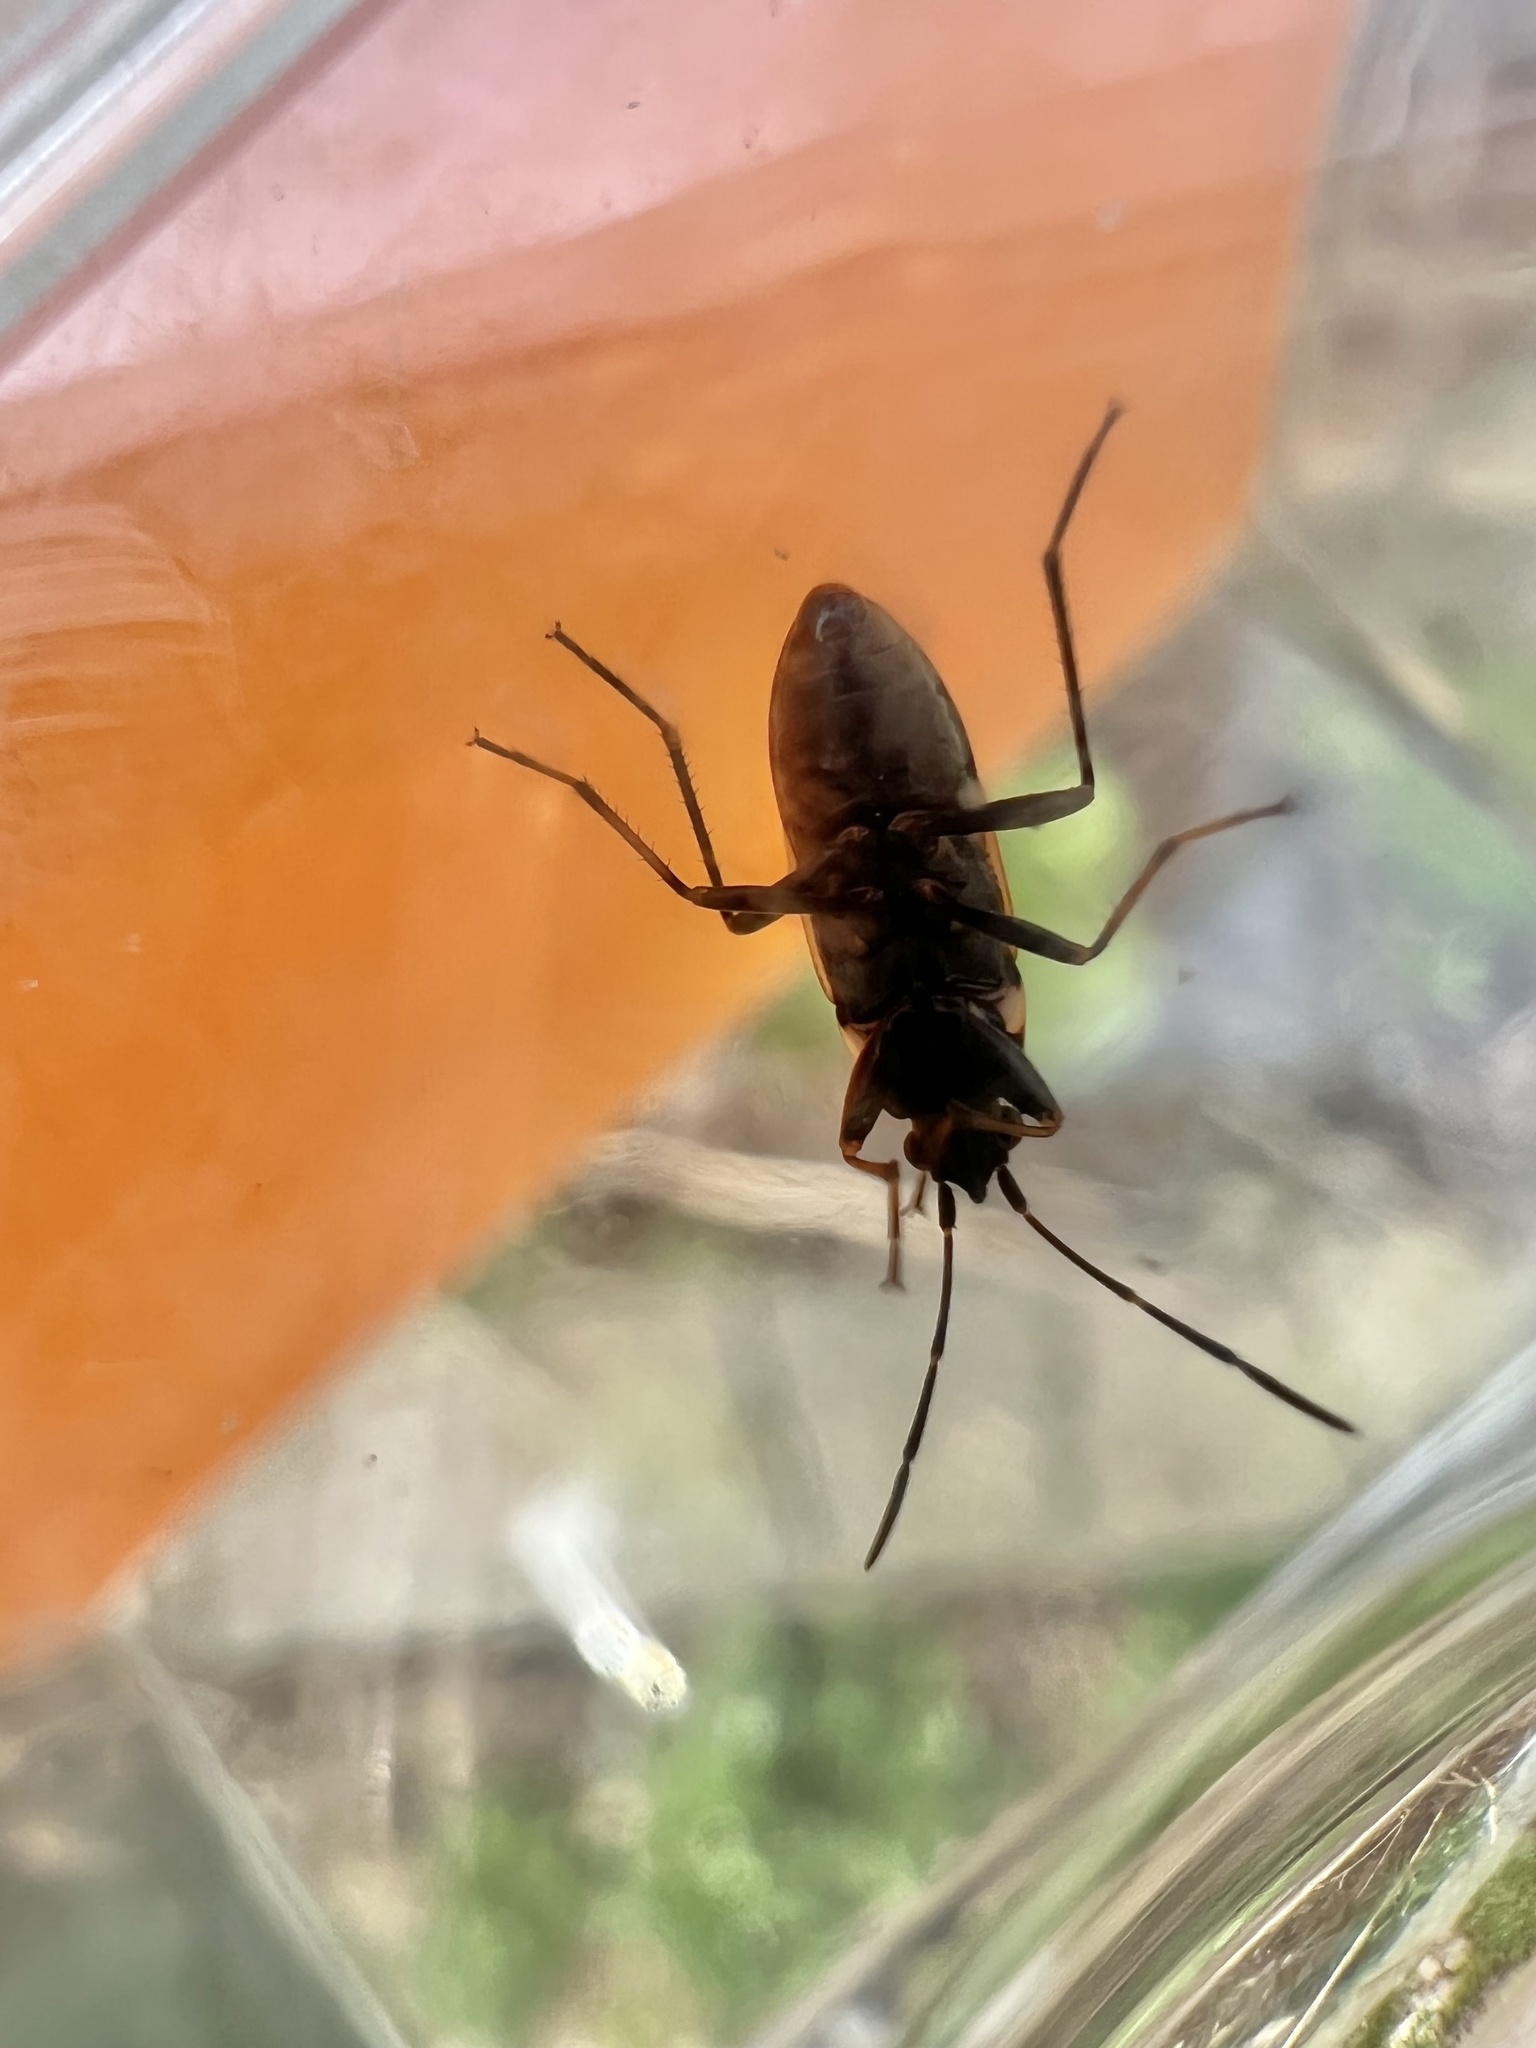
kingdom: Animalia
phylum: Arthropoda
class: Insecta
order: Hemiptera
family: Rhyparochromidae
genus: Rhyparochromus
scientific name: Rhyparochromus vulgaris
